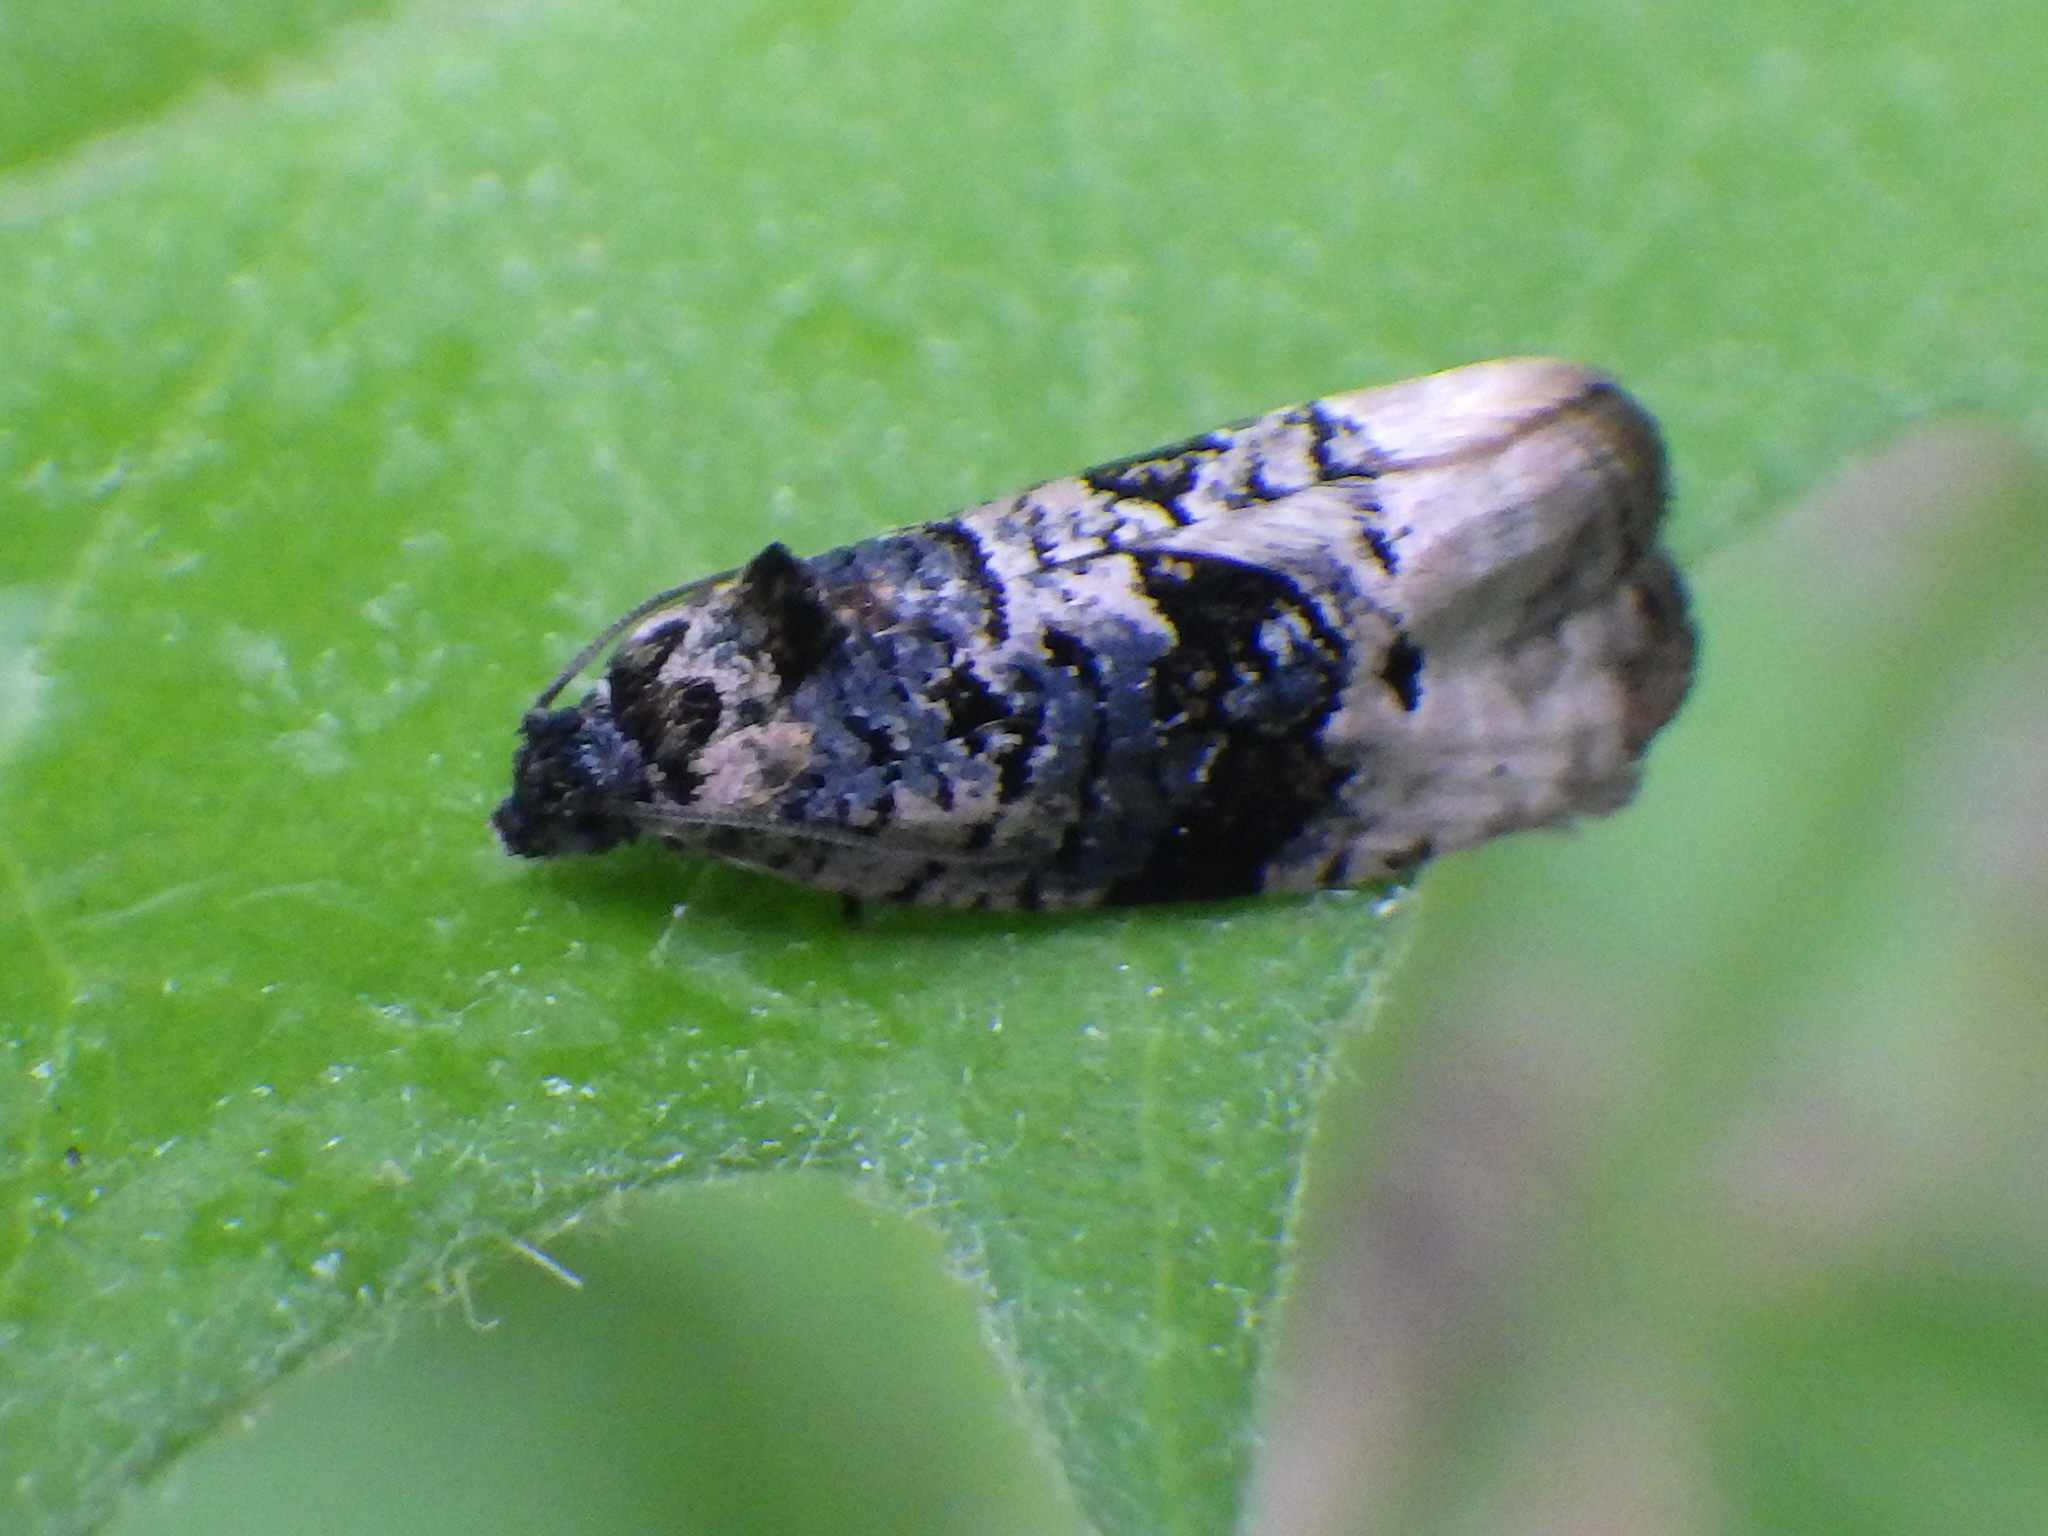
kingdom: Animalia
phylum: Arthropoda
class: Insecta
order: Lepidoptera
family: Tortricidae
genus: Hedya
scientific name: Hedya separatana
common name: Pink-washed leafroller moth
